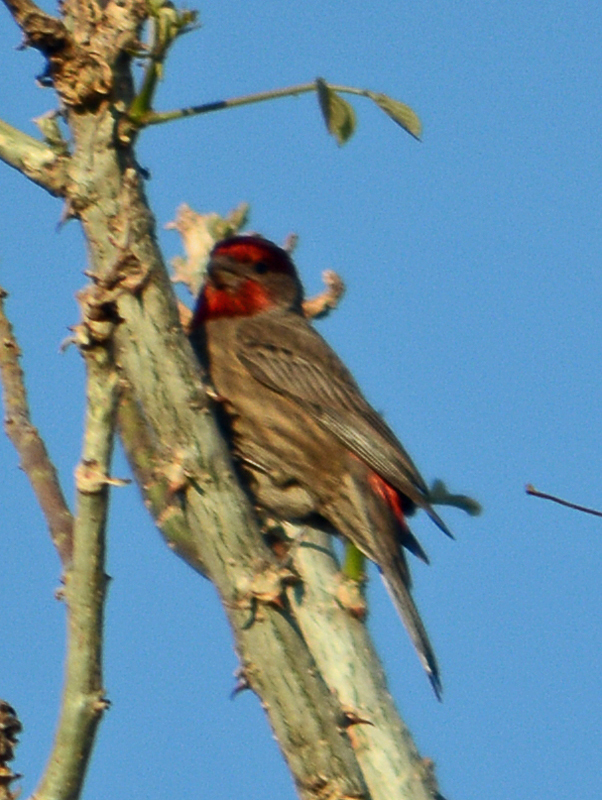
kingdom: Animalia
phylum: Chordata
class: Aves
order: Passeriformes
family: Fringillidae
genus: Haemorhous
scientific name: Haemorhous mexicanus
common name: House finch
